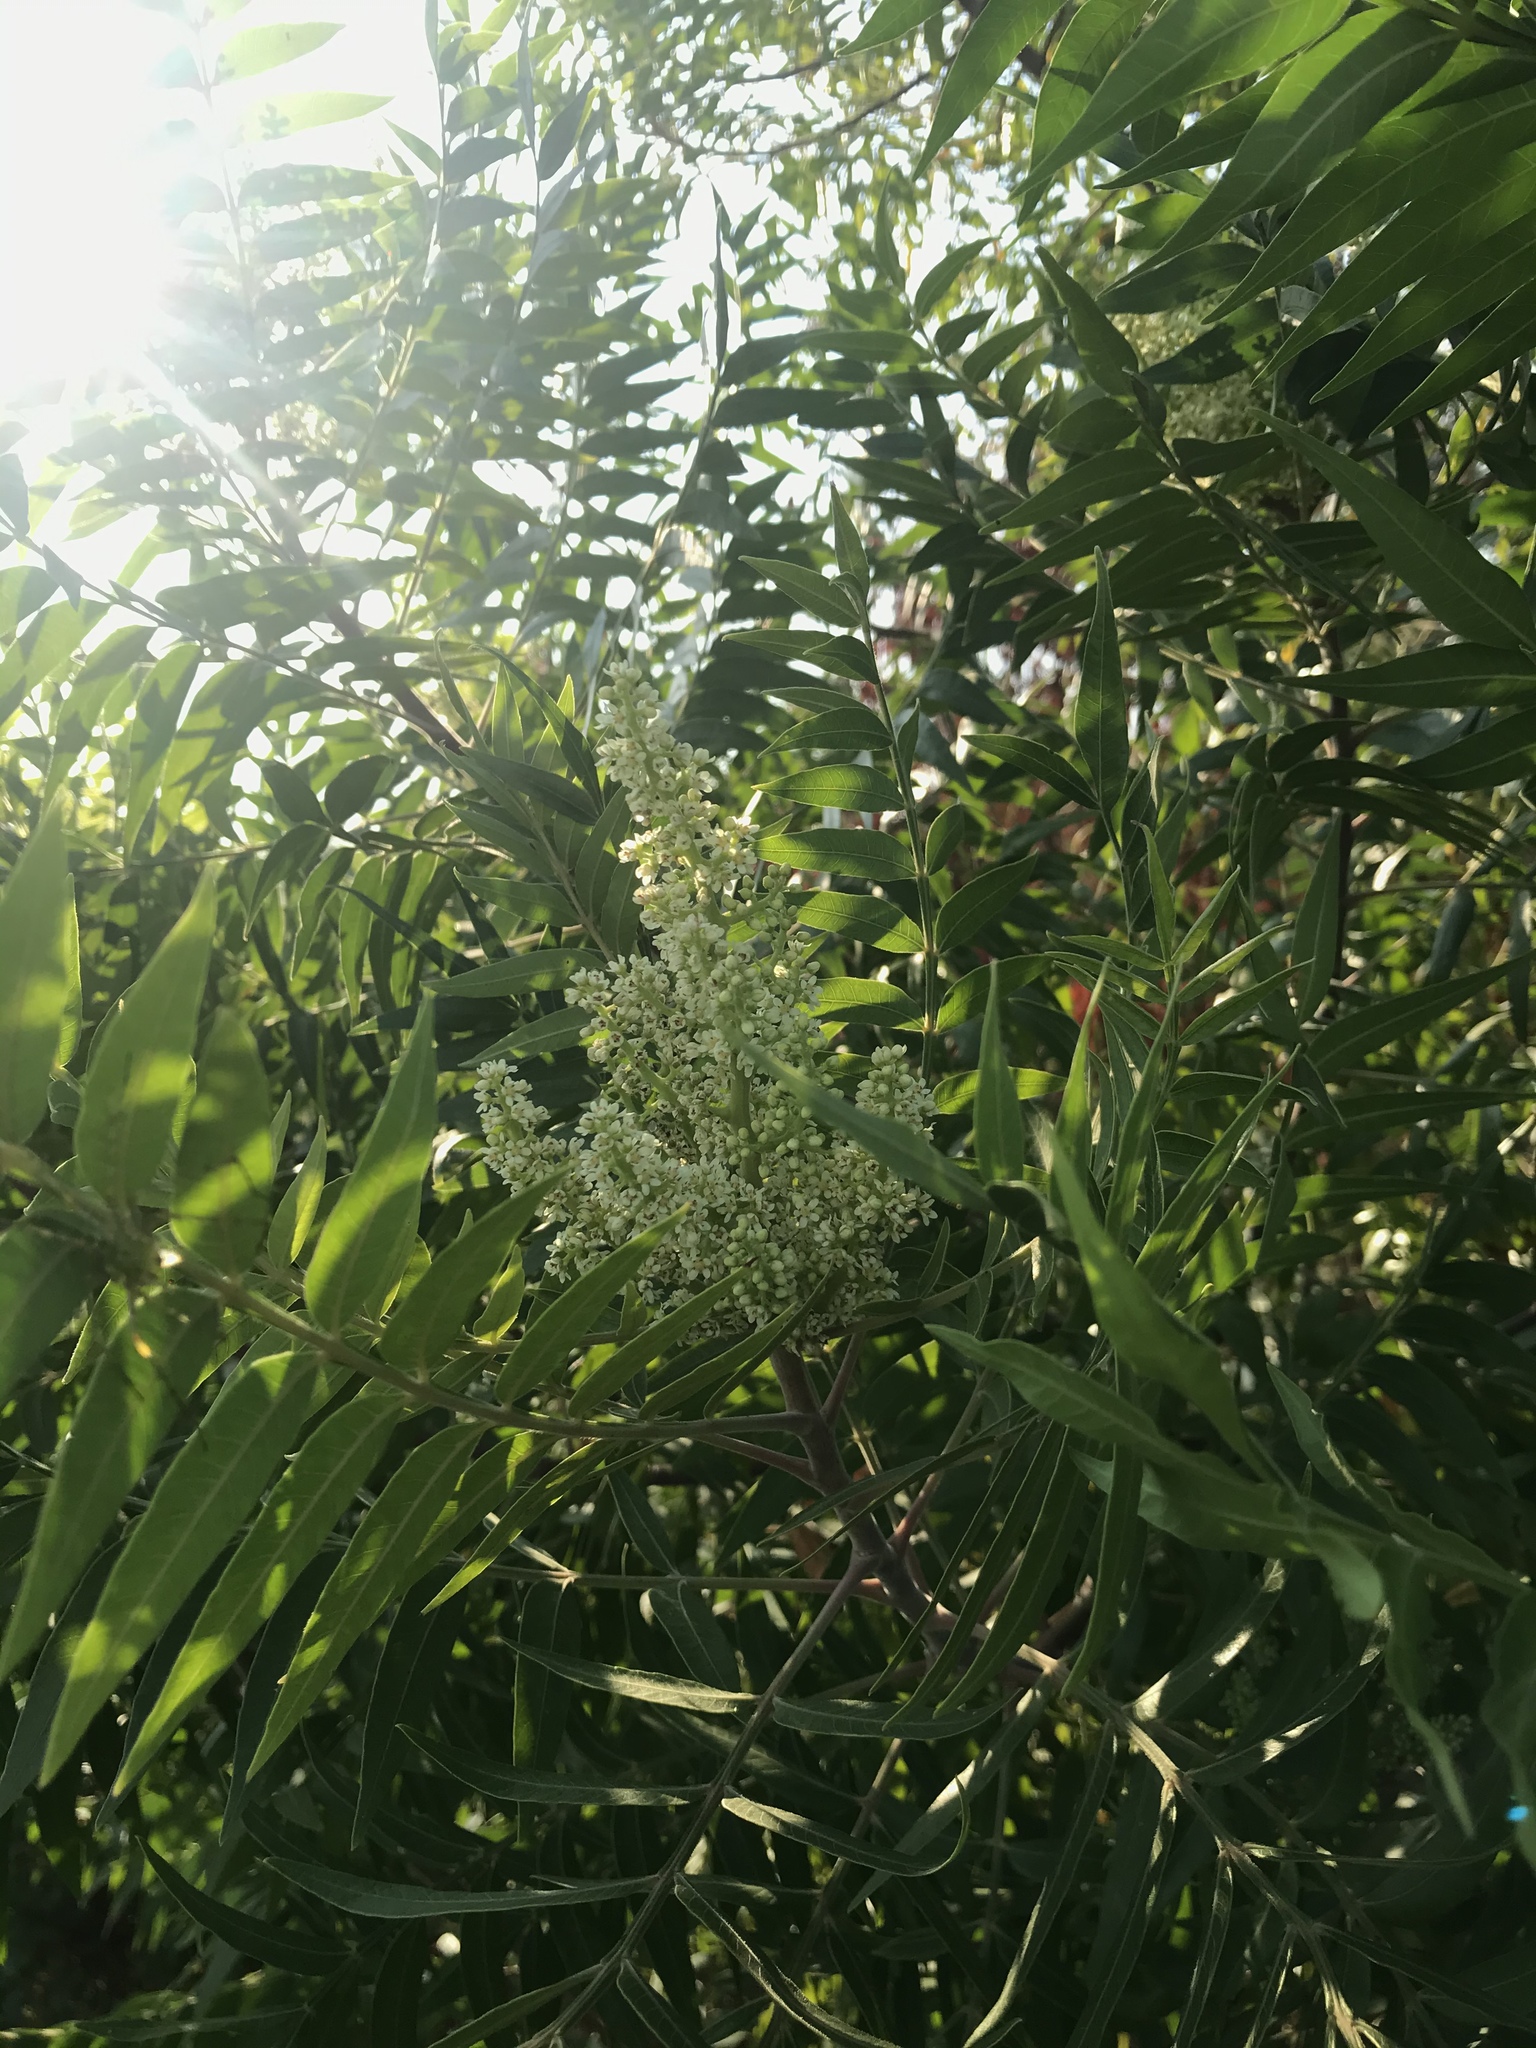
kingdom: Plantae
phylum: Tracheophyta
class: Magnoliopsida
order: Sapindales
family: Anacardiaceae
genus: Rhus
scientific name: Rhus lanceolata
